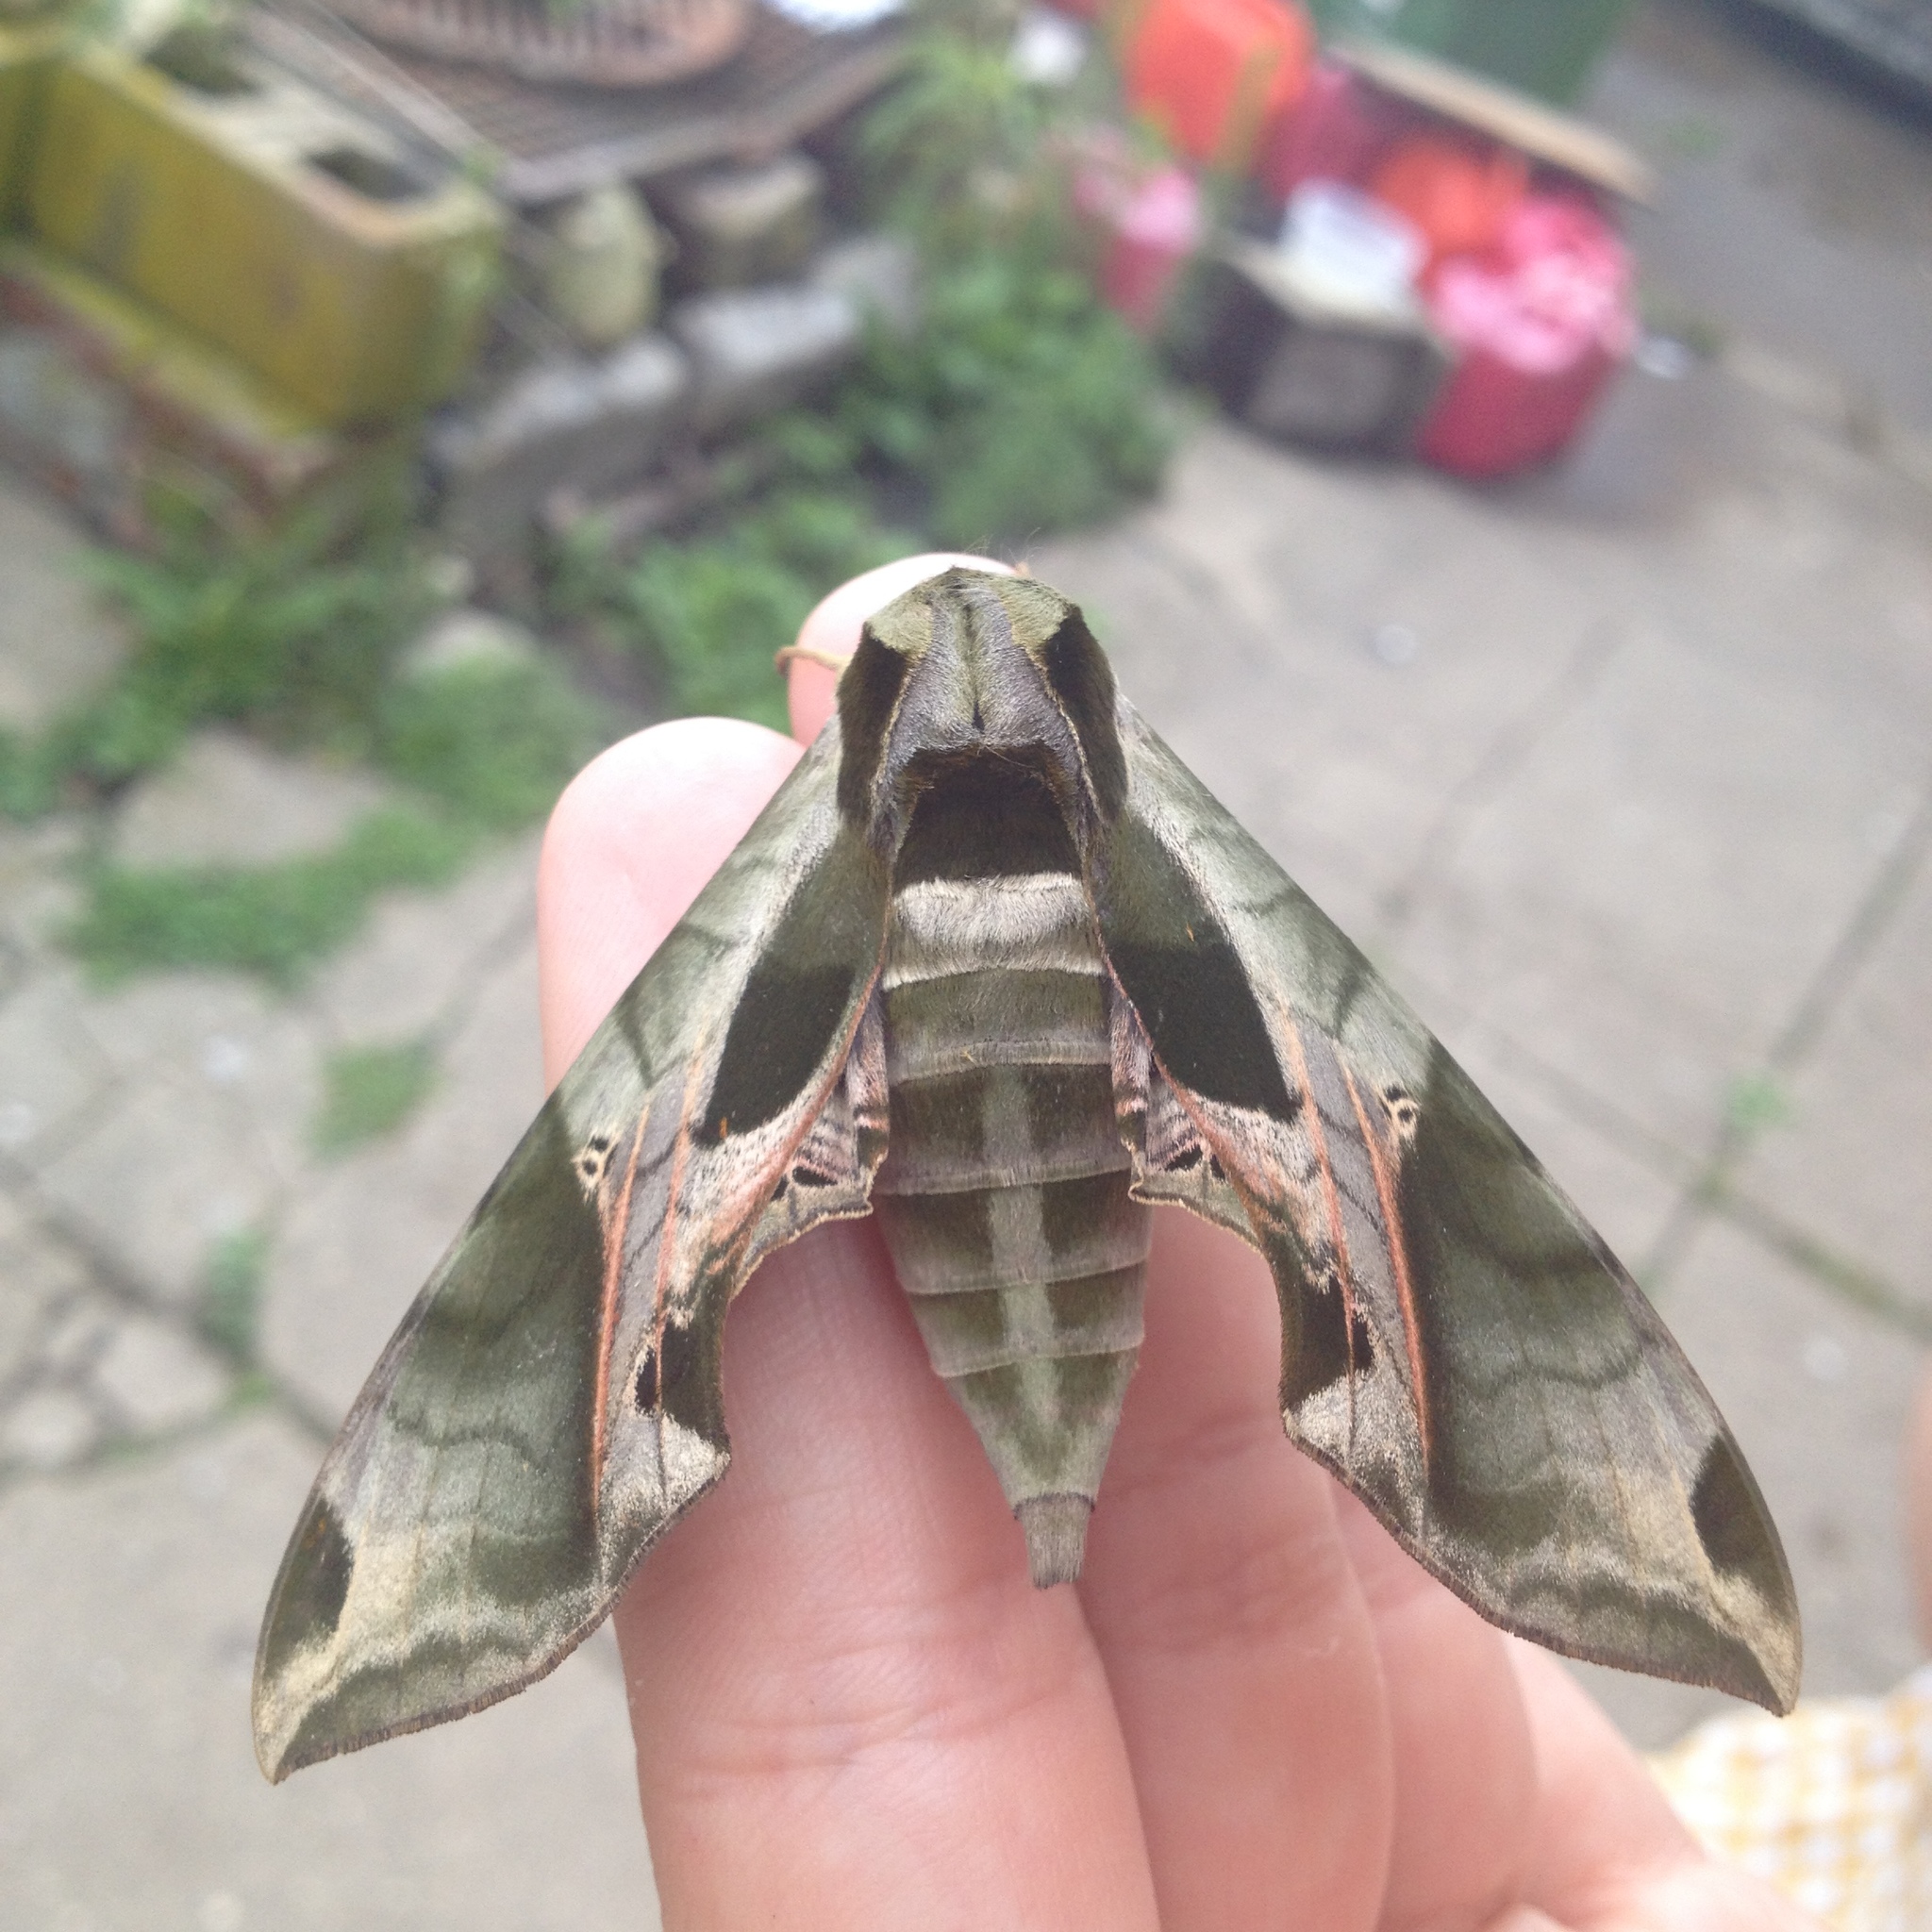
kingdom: Animalia
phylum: Arthropoda
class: Insecta
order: Lepidoptera
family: Sphingidae
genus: Eumorpha
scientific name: Eumorpha pandorus
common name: Pandora sphinx
